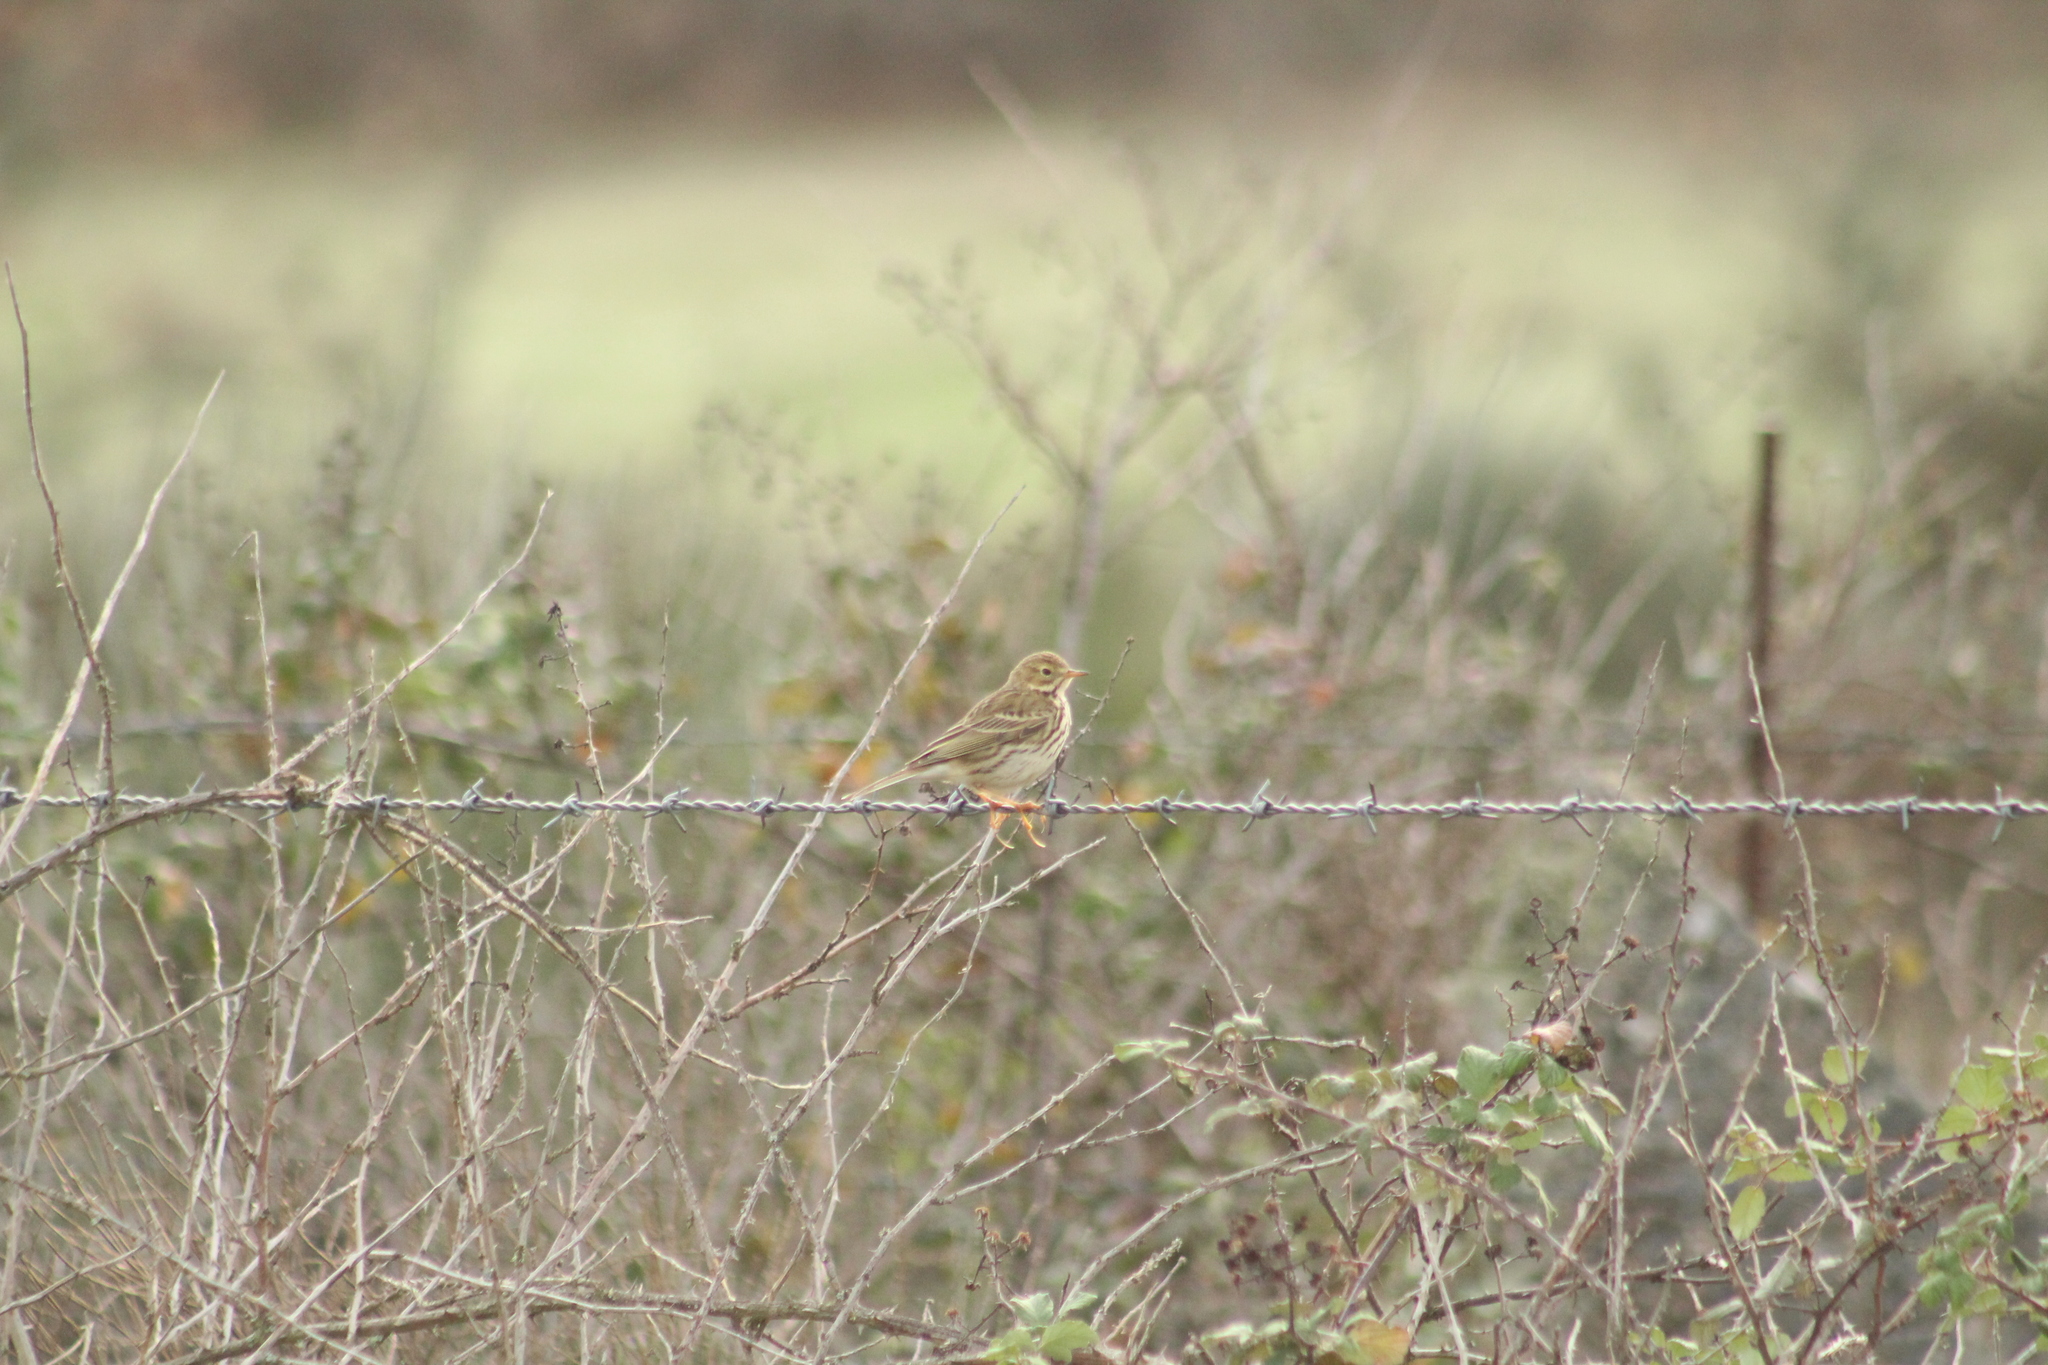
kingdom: Animalia
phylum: Chordata
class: Aves
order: Passeriformes
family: Motacillidae
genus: Anthus
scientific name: Anthus pratensis
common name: Meadow pipit
